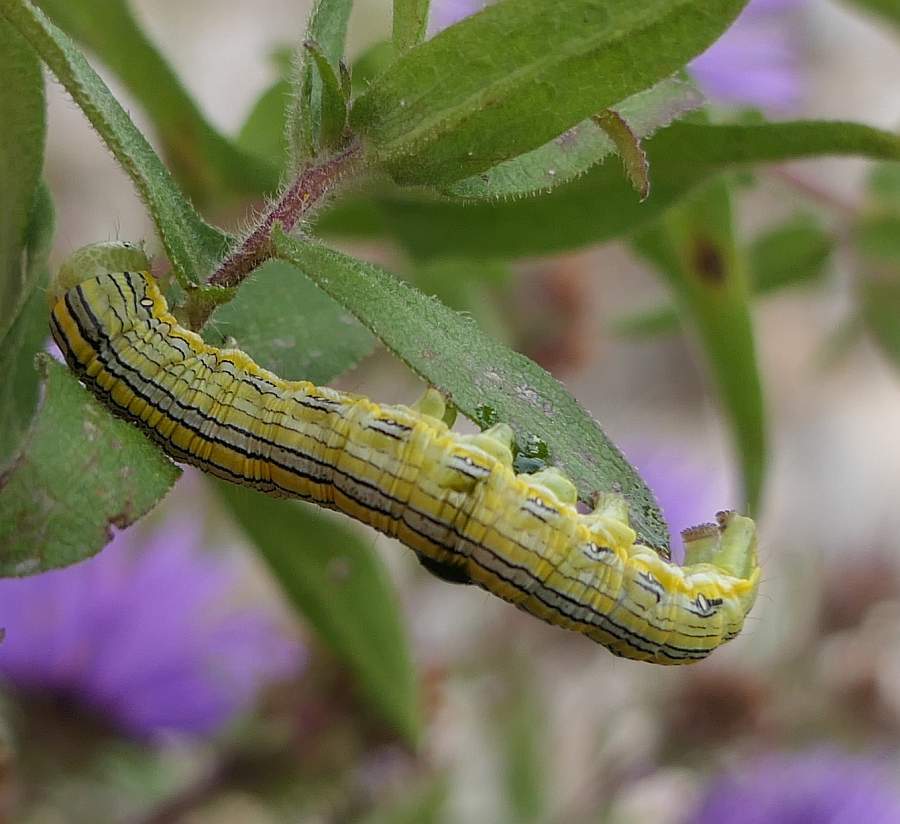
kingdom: Animalia
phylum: Arthropoda
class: Insecta
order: Lepidoptera
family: Noctuidae
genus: Cucullia
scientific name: Cucullia asteroides
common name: Asteroid moth
